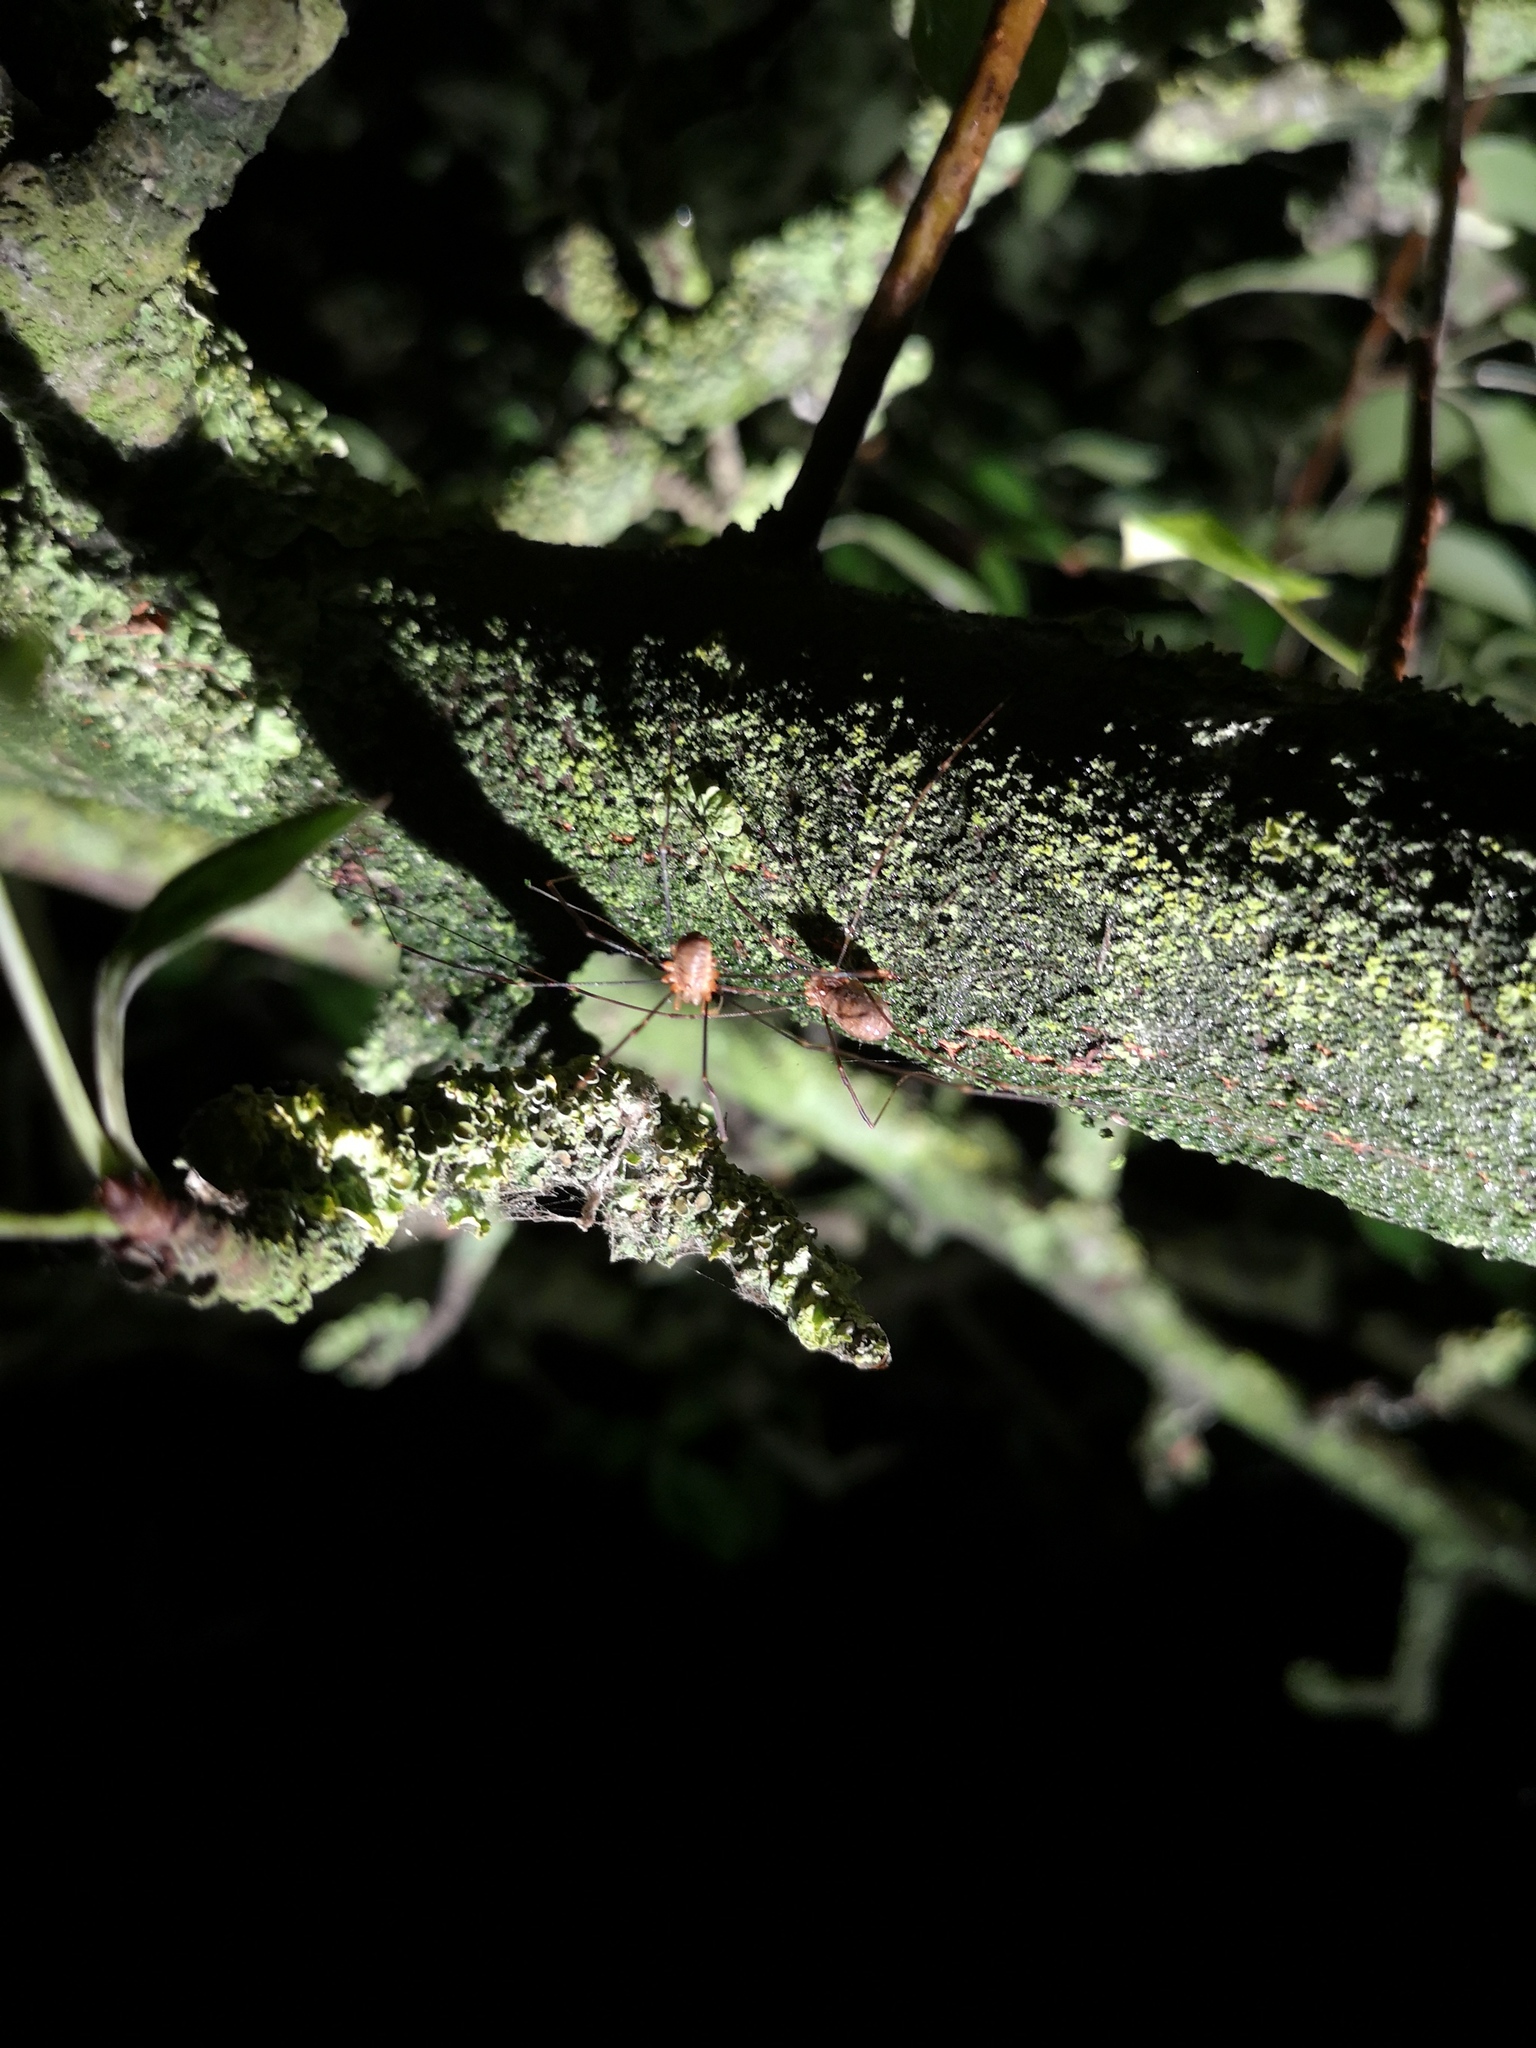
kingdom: Animalia
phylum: Arthropoda
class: Arachnida
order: Opiliones
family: Phalangiidae
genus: Opilio
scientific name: Opilio canestrinii
